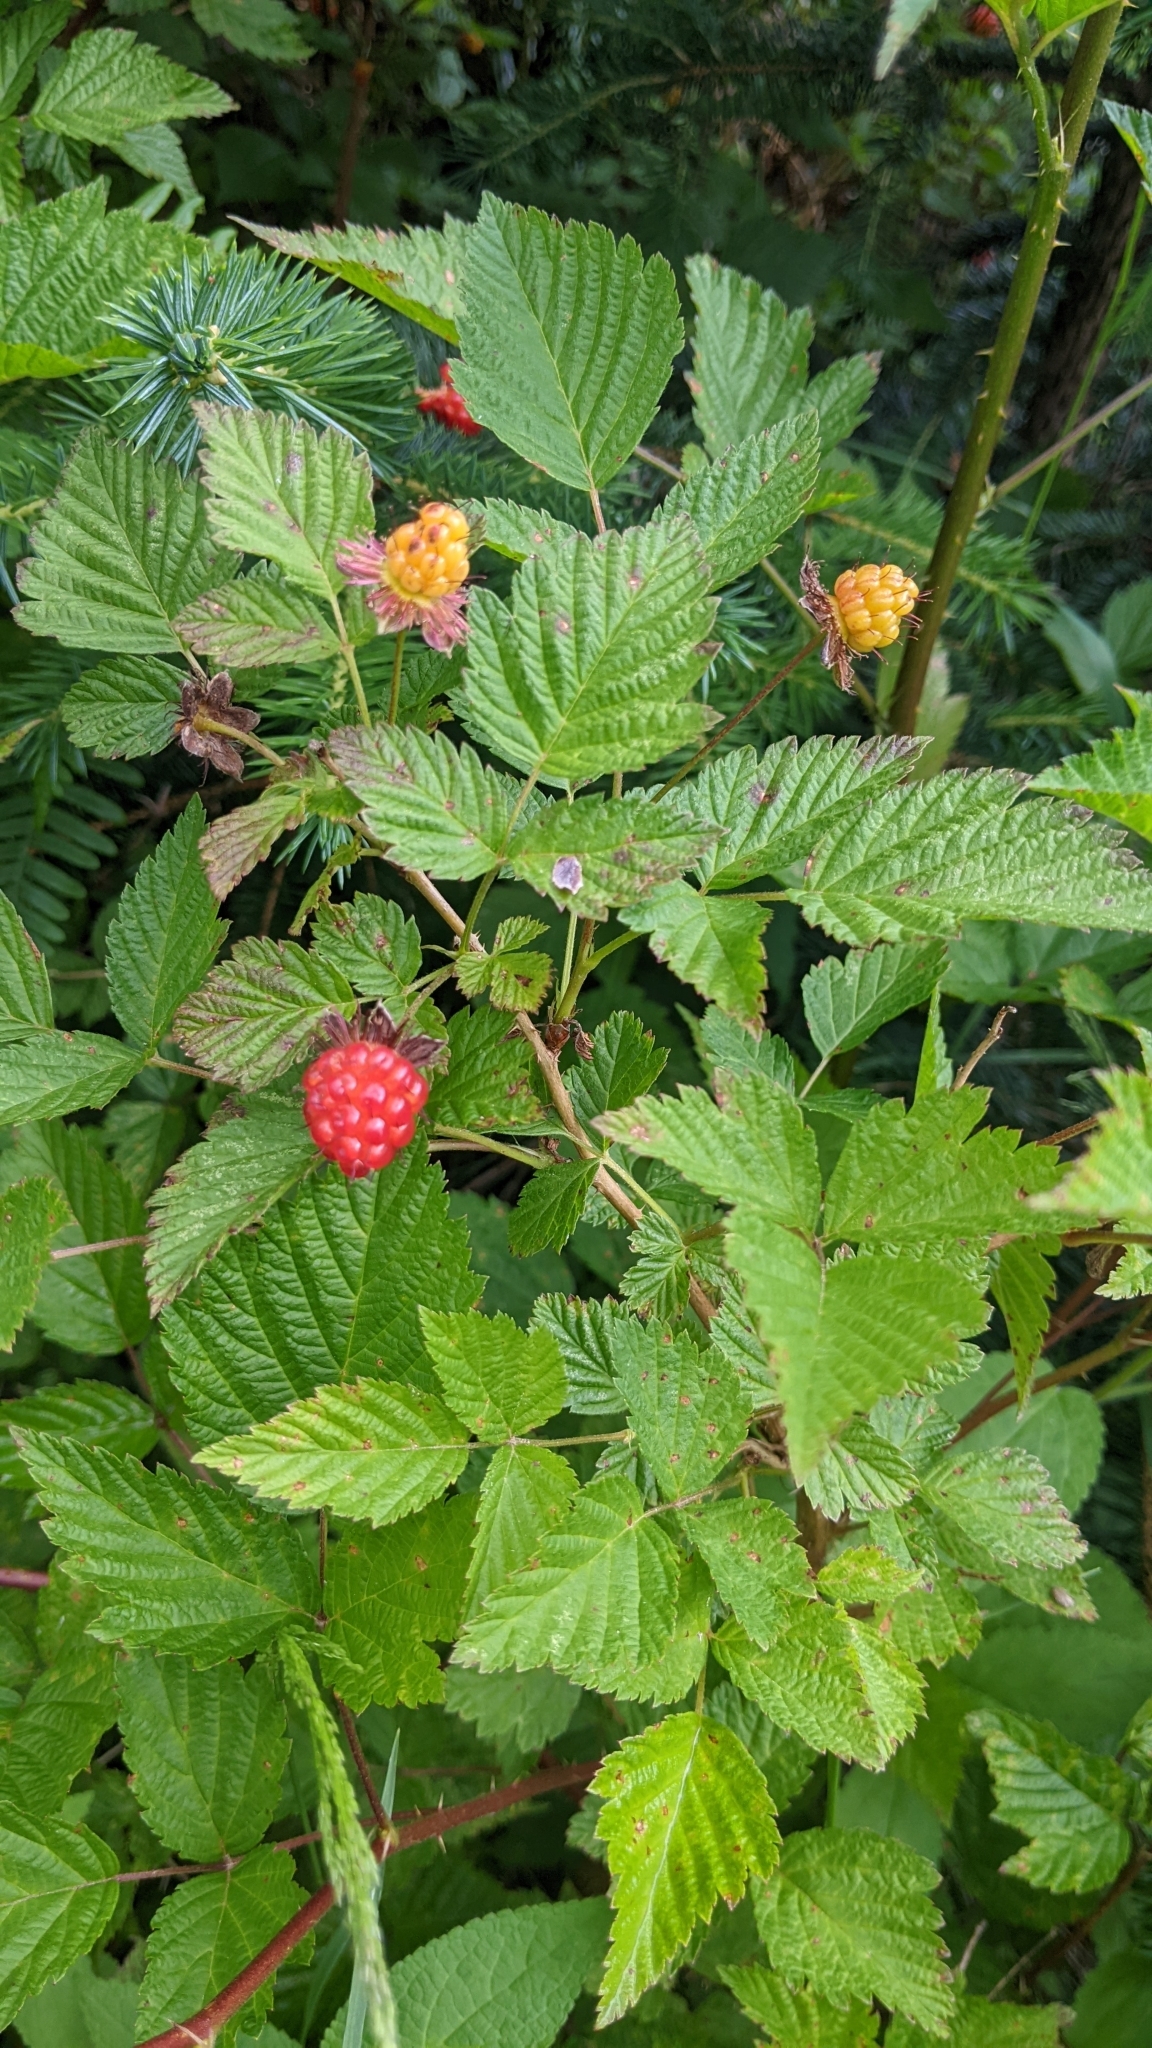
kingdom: Plantae
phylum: Tracheophyta
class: Magnoliopsida
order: Rosales
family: Rosaceae
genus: Rubus
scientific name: Rubus spectabilis
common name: Salmonberry
